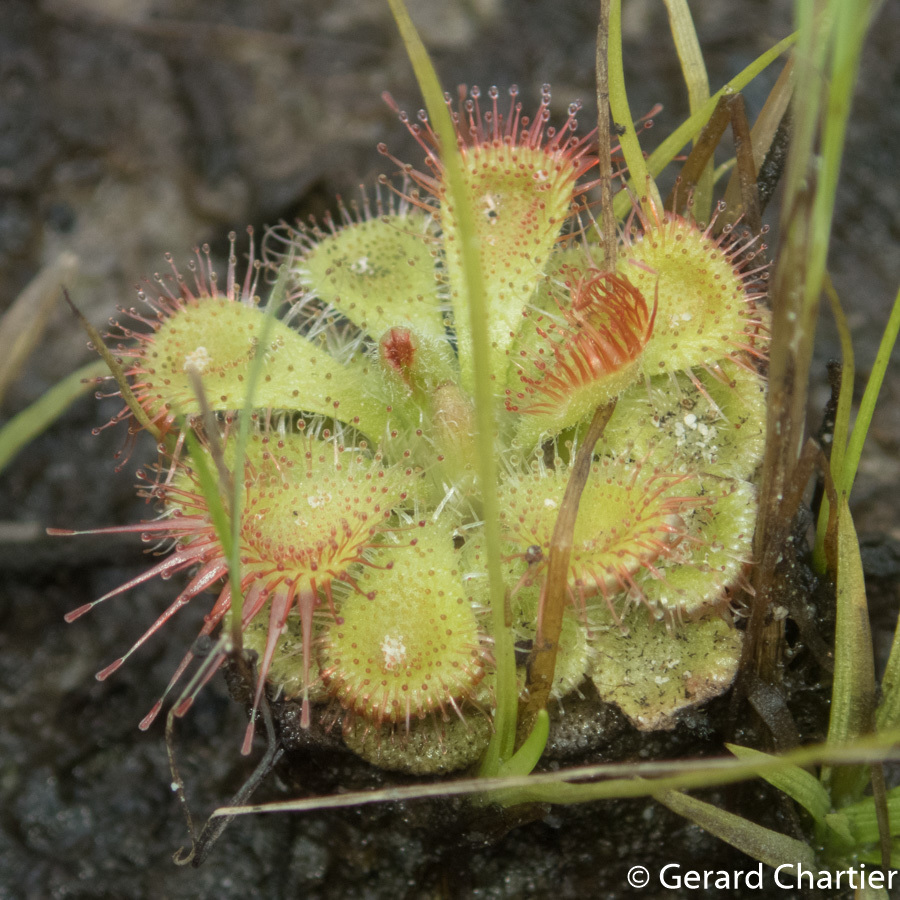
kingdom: Plantae
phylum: Tracheophyta
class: Magnoliopsida
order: Caryophyllales
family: Droseraceae
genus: Drosera
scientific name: Drosera spatulata
